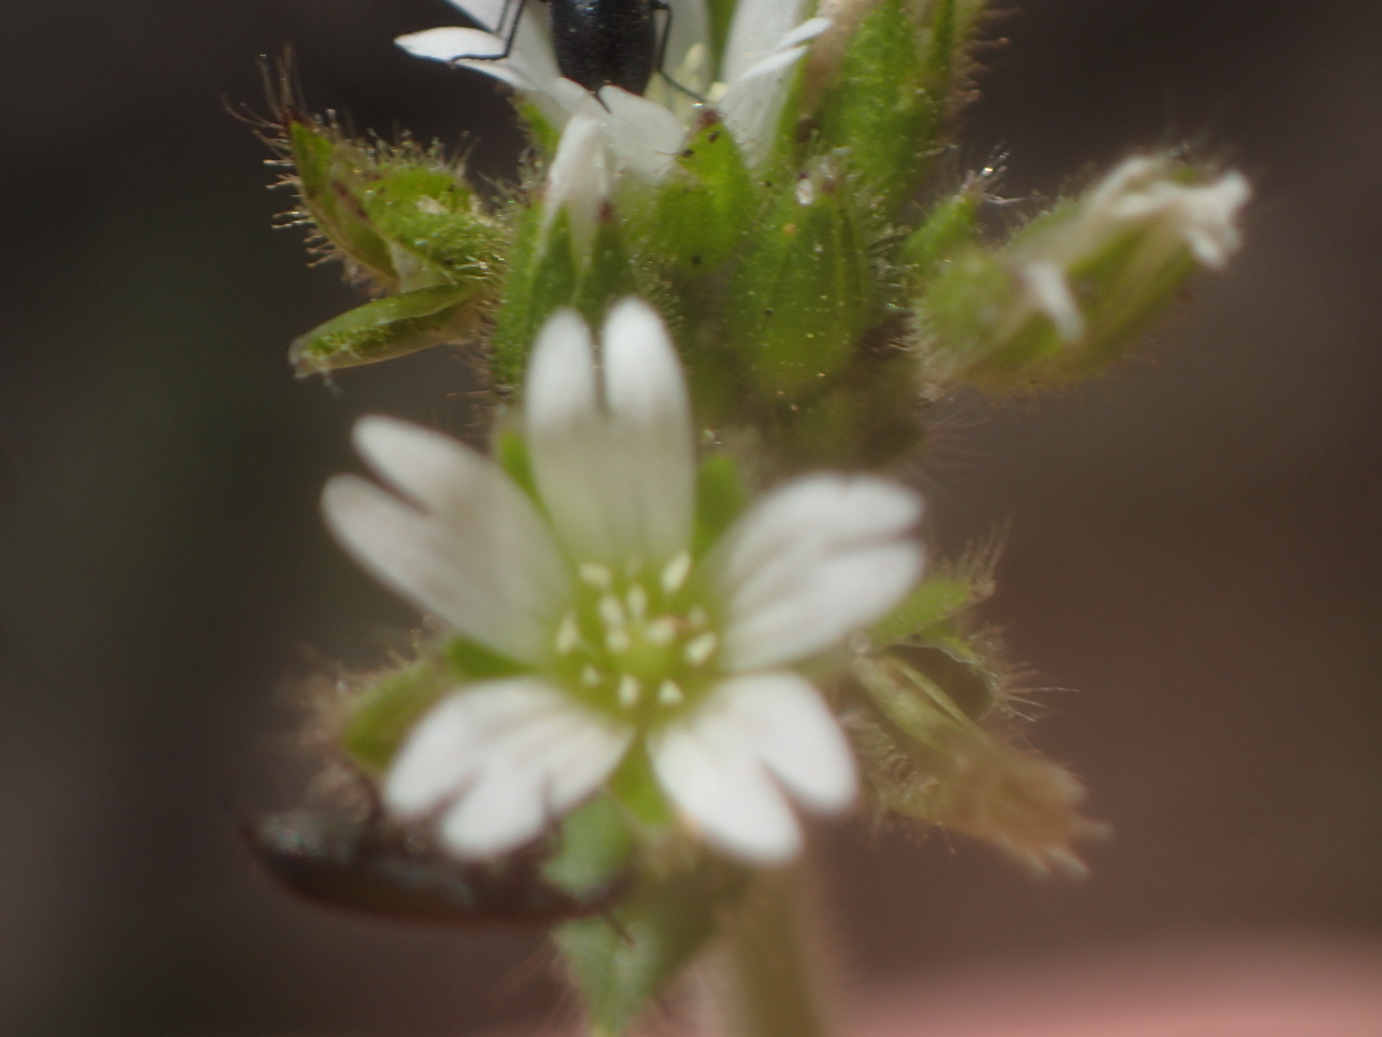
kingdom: Plantae
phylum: Tracheophyta
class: Magnoliopsida
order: Caryophyllales
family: Caryophyllaceae
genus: Stellaria
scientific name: Stellaria media
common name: Common chickweed
